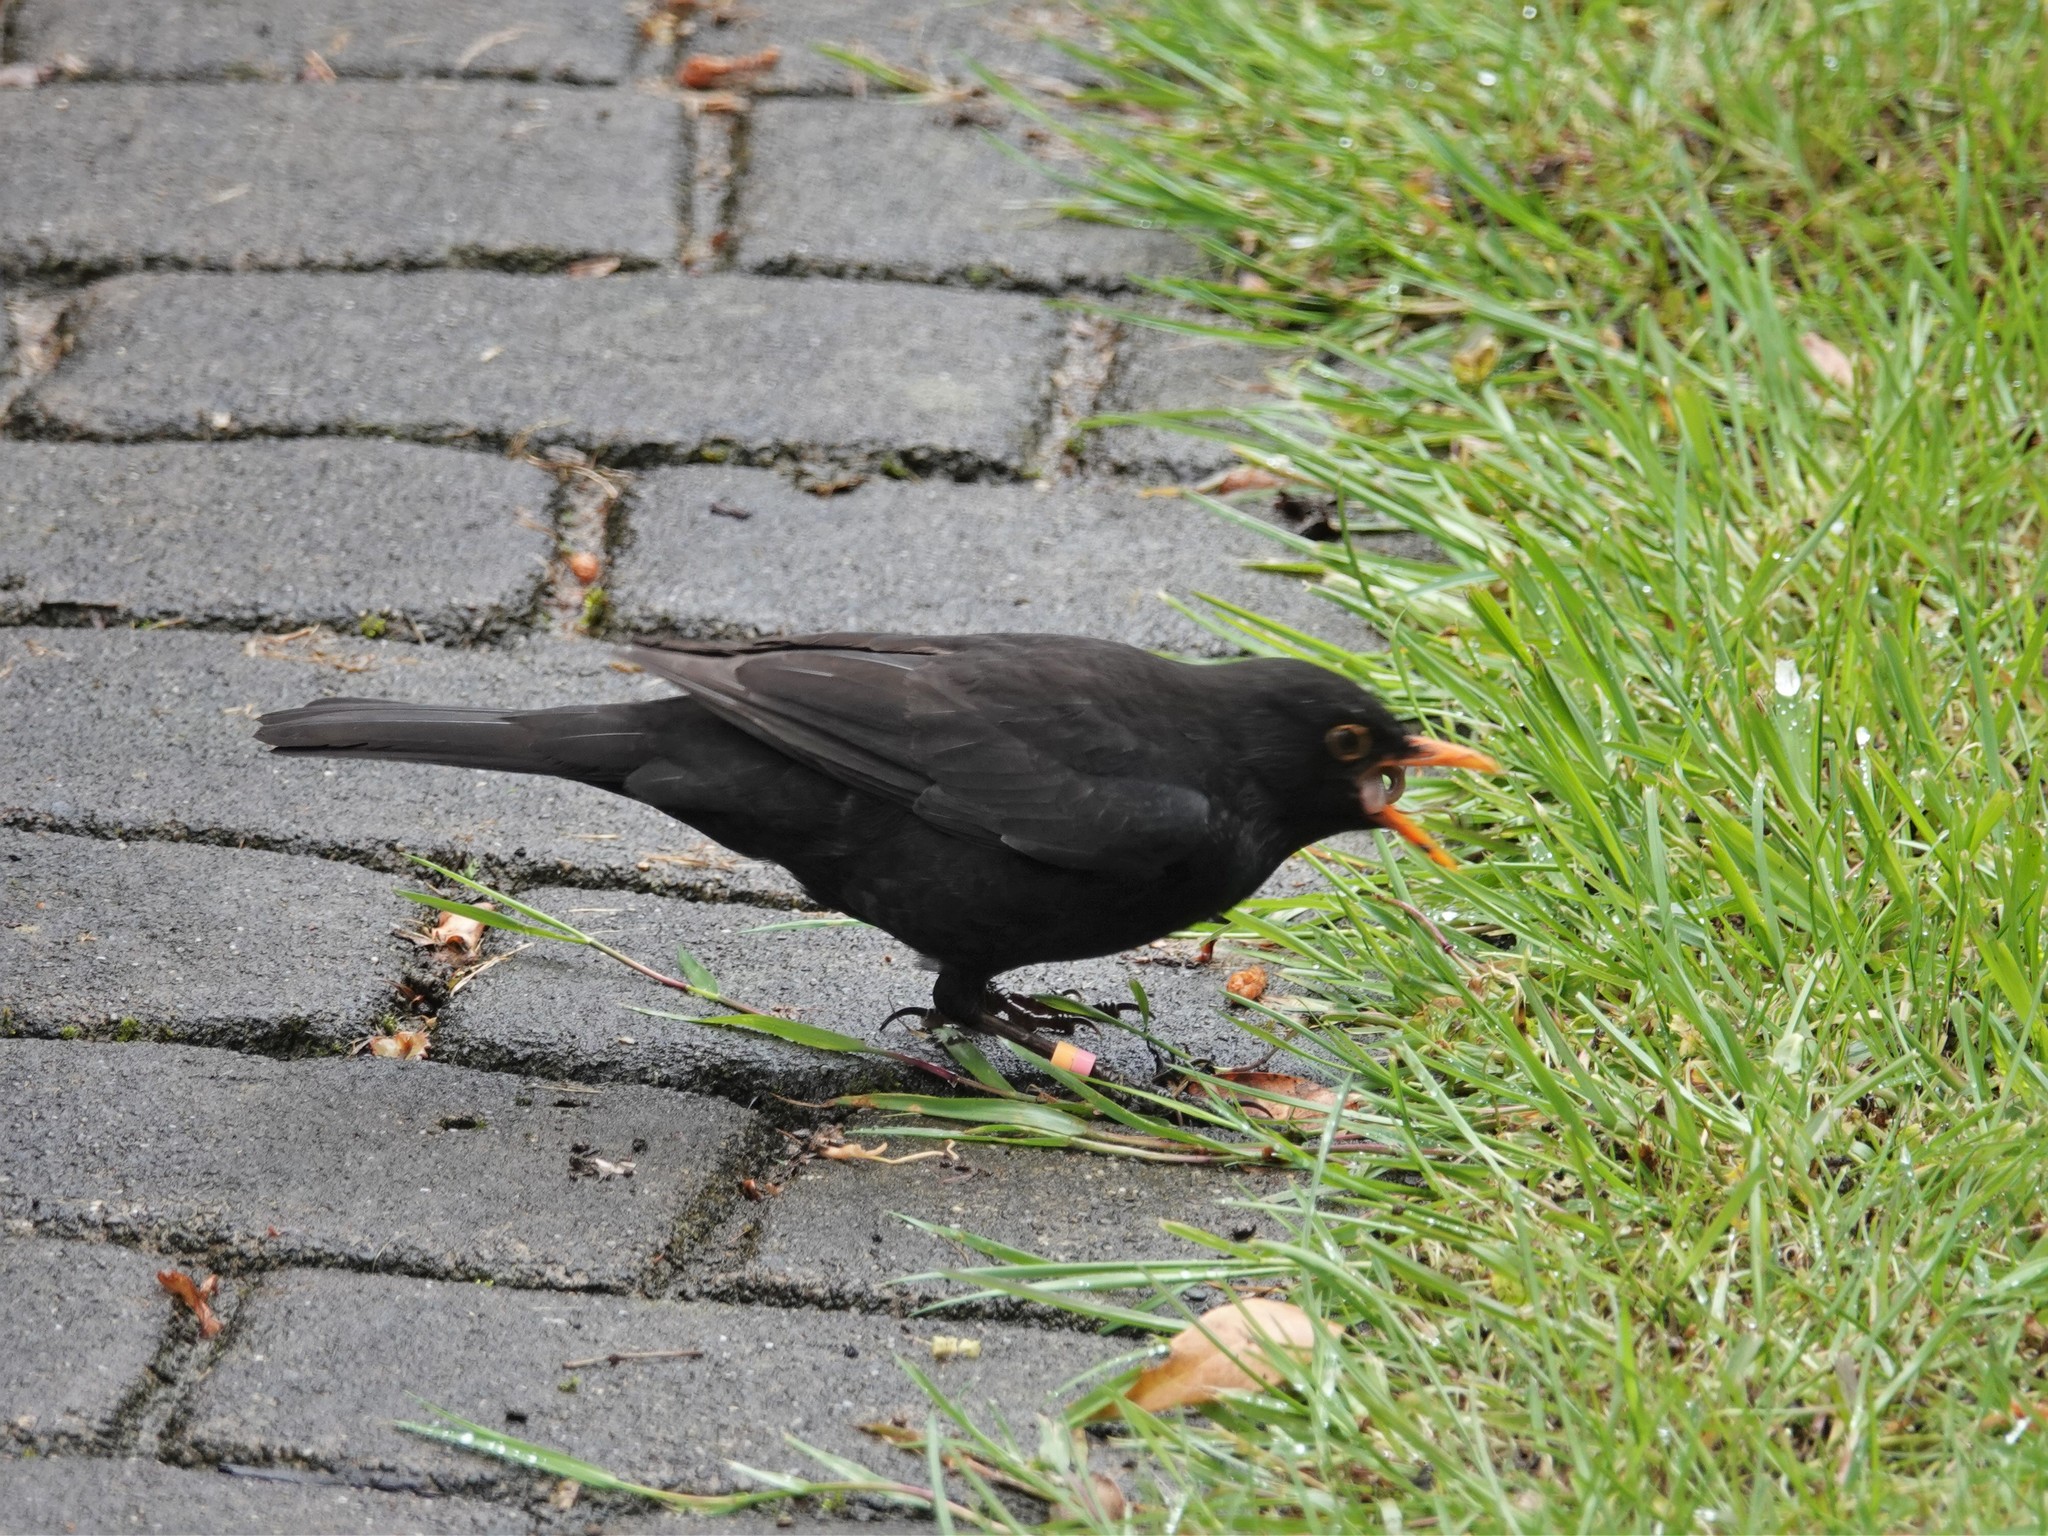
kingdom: Animalia
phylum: Chordata
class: Aves
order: Passeriformes
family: Turdidae
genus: Turdus
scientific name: Turdus merula
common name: Common blackbird
